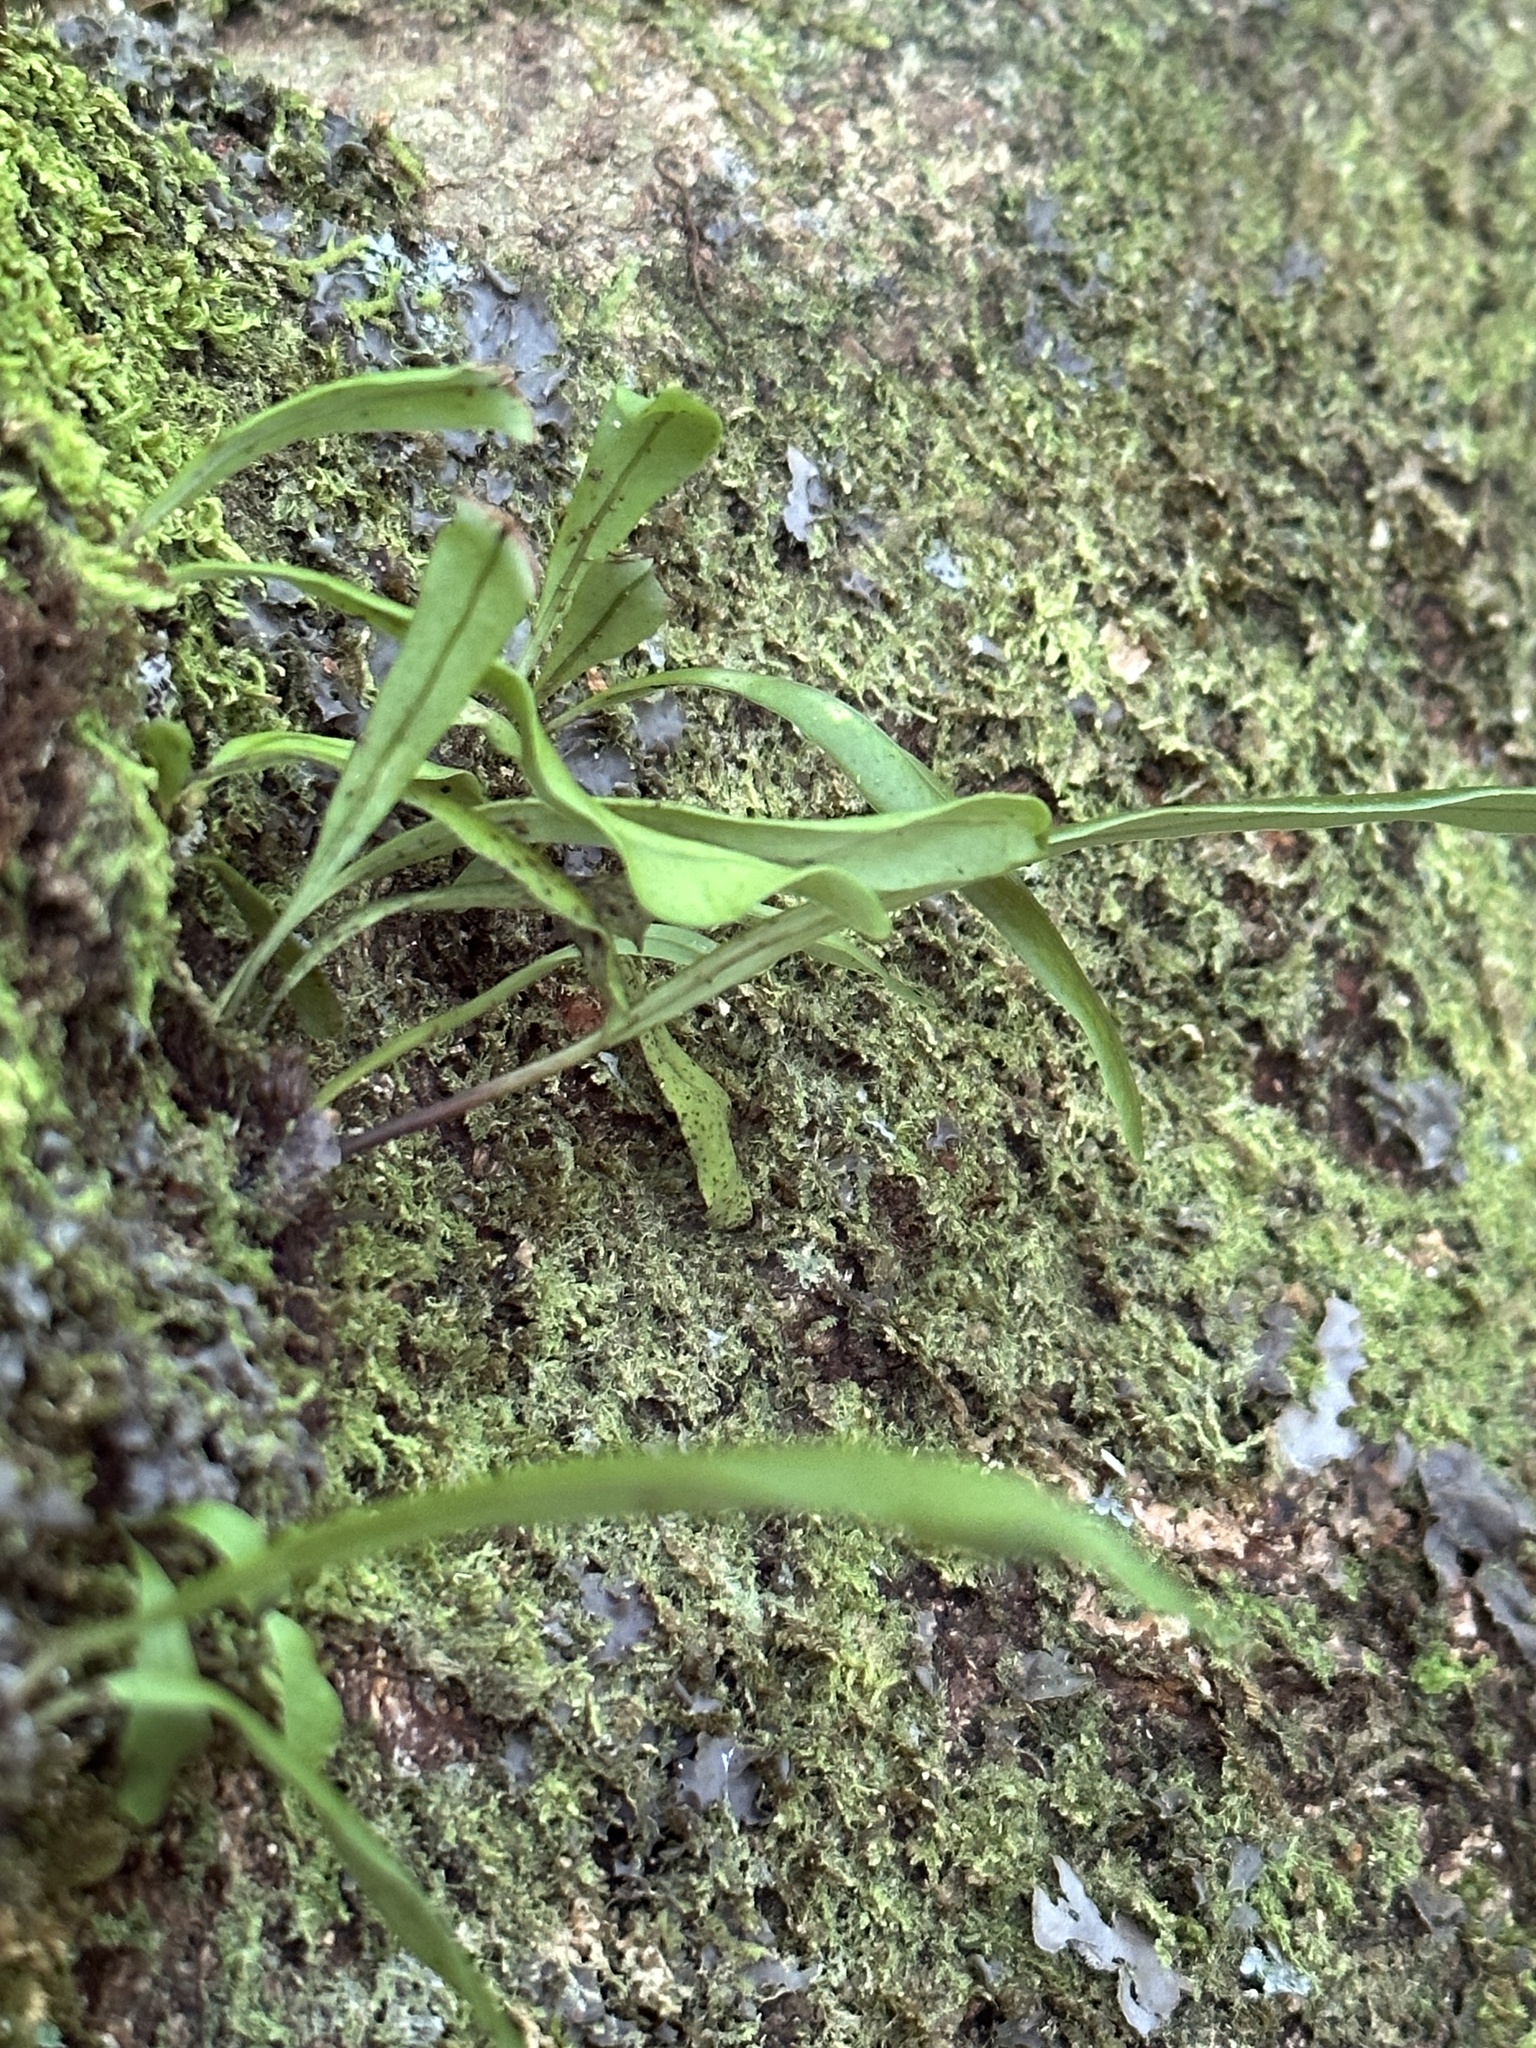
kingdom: Plantae
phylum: Tracheophyta
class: Polypodiopsida
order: Polypodiales
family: Polypodiaceae
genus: Lepisorus
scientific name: Lepisorus thunbergianus
